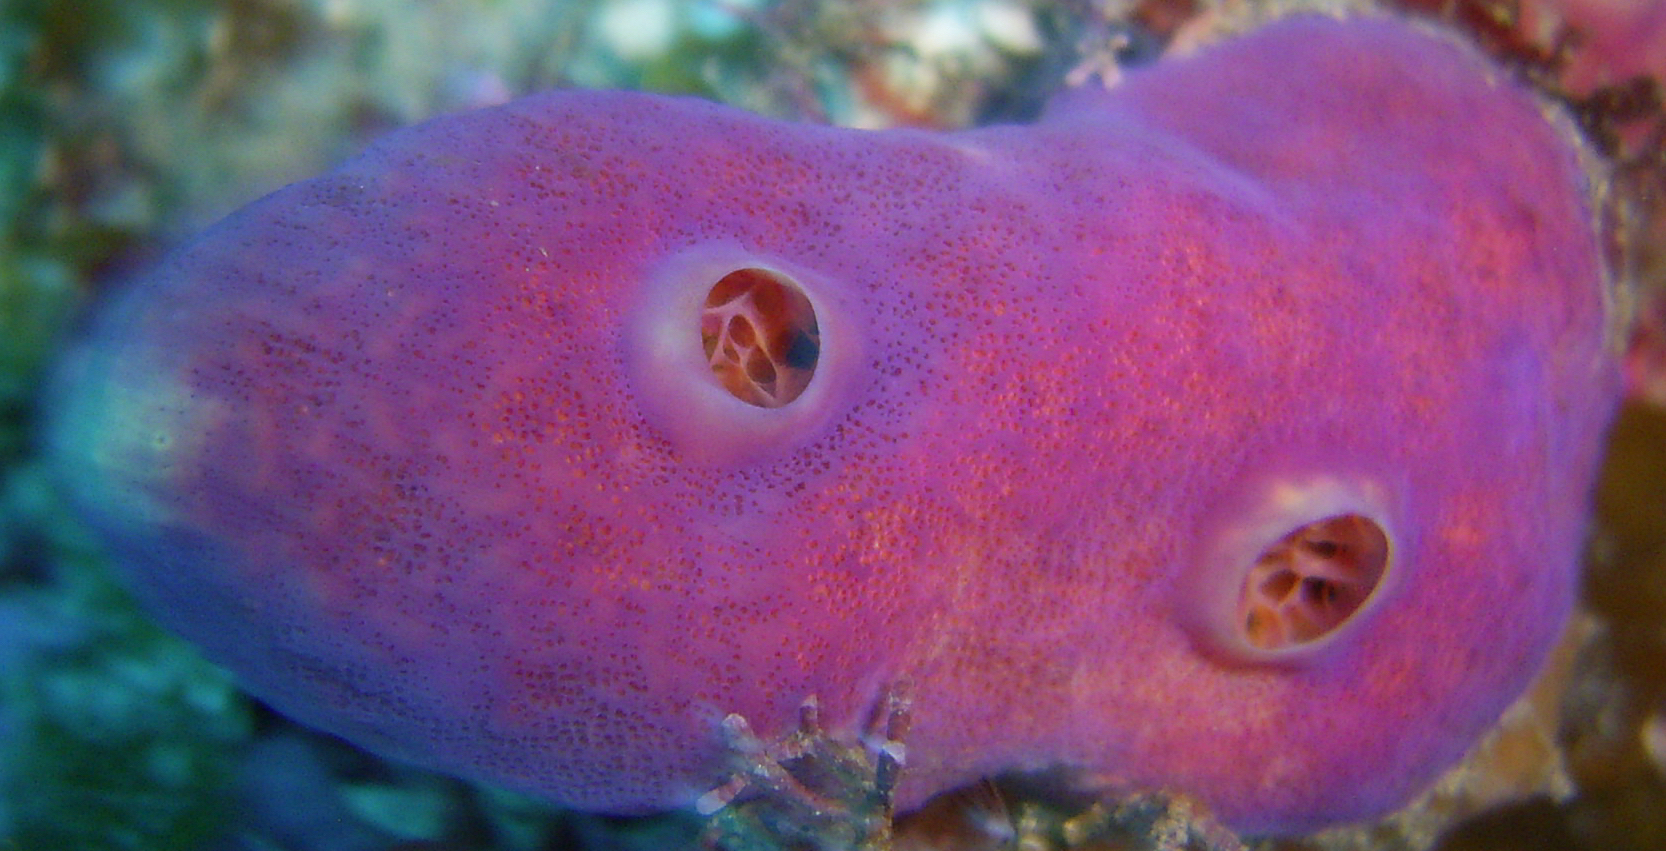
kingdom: Animalia
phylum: Porifera
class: Demospongiae
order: Verongiida
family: Aplysinidae
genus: Aplysina
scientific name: Aplysina cauliformis
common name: Branching candle sponge
